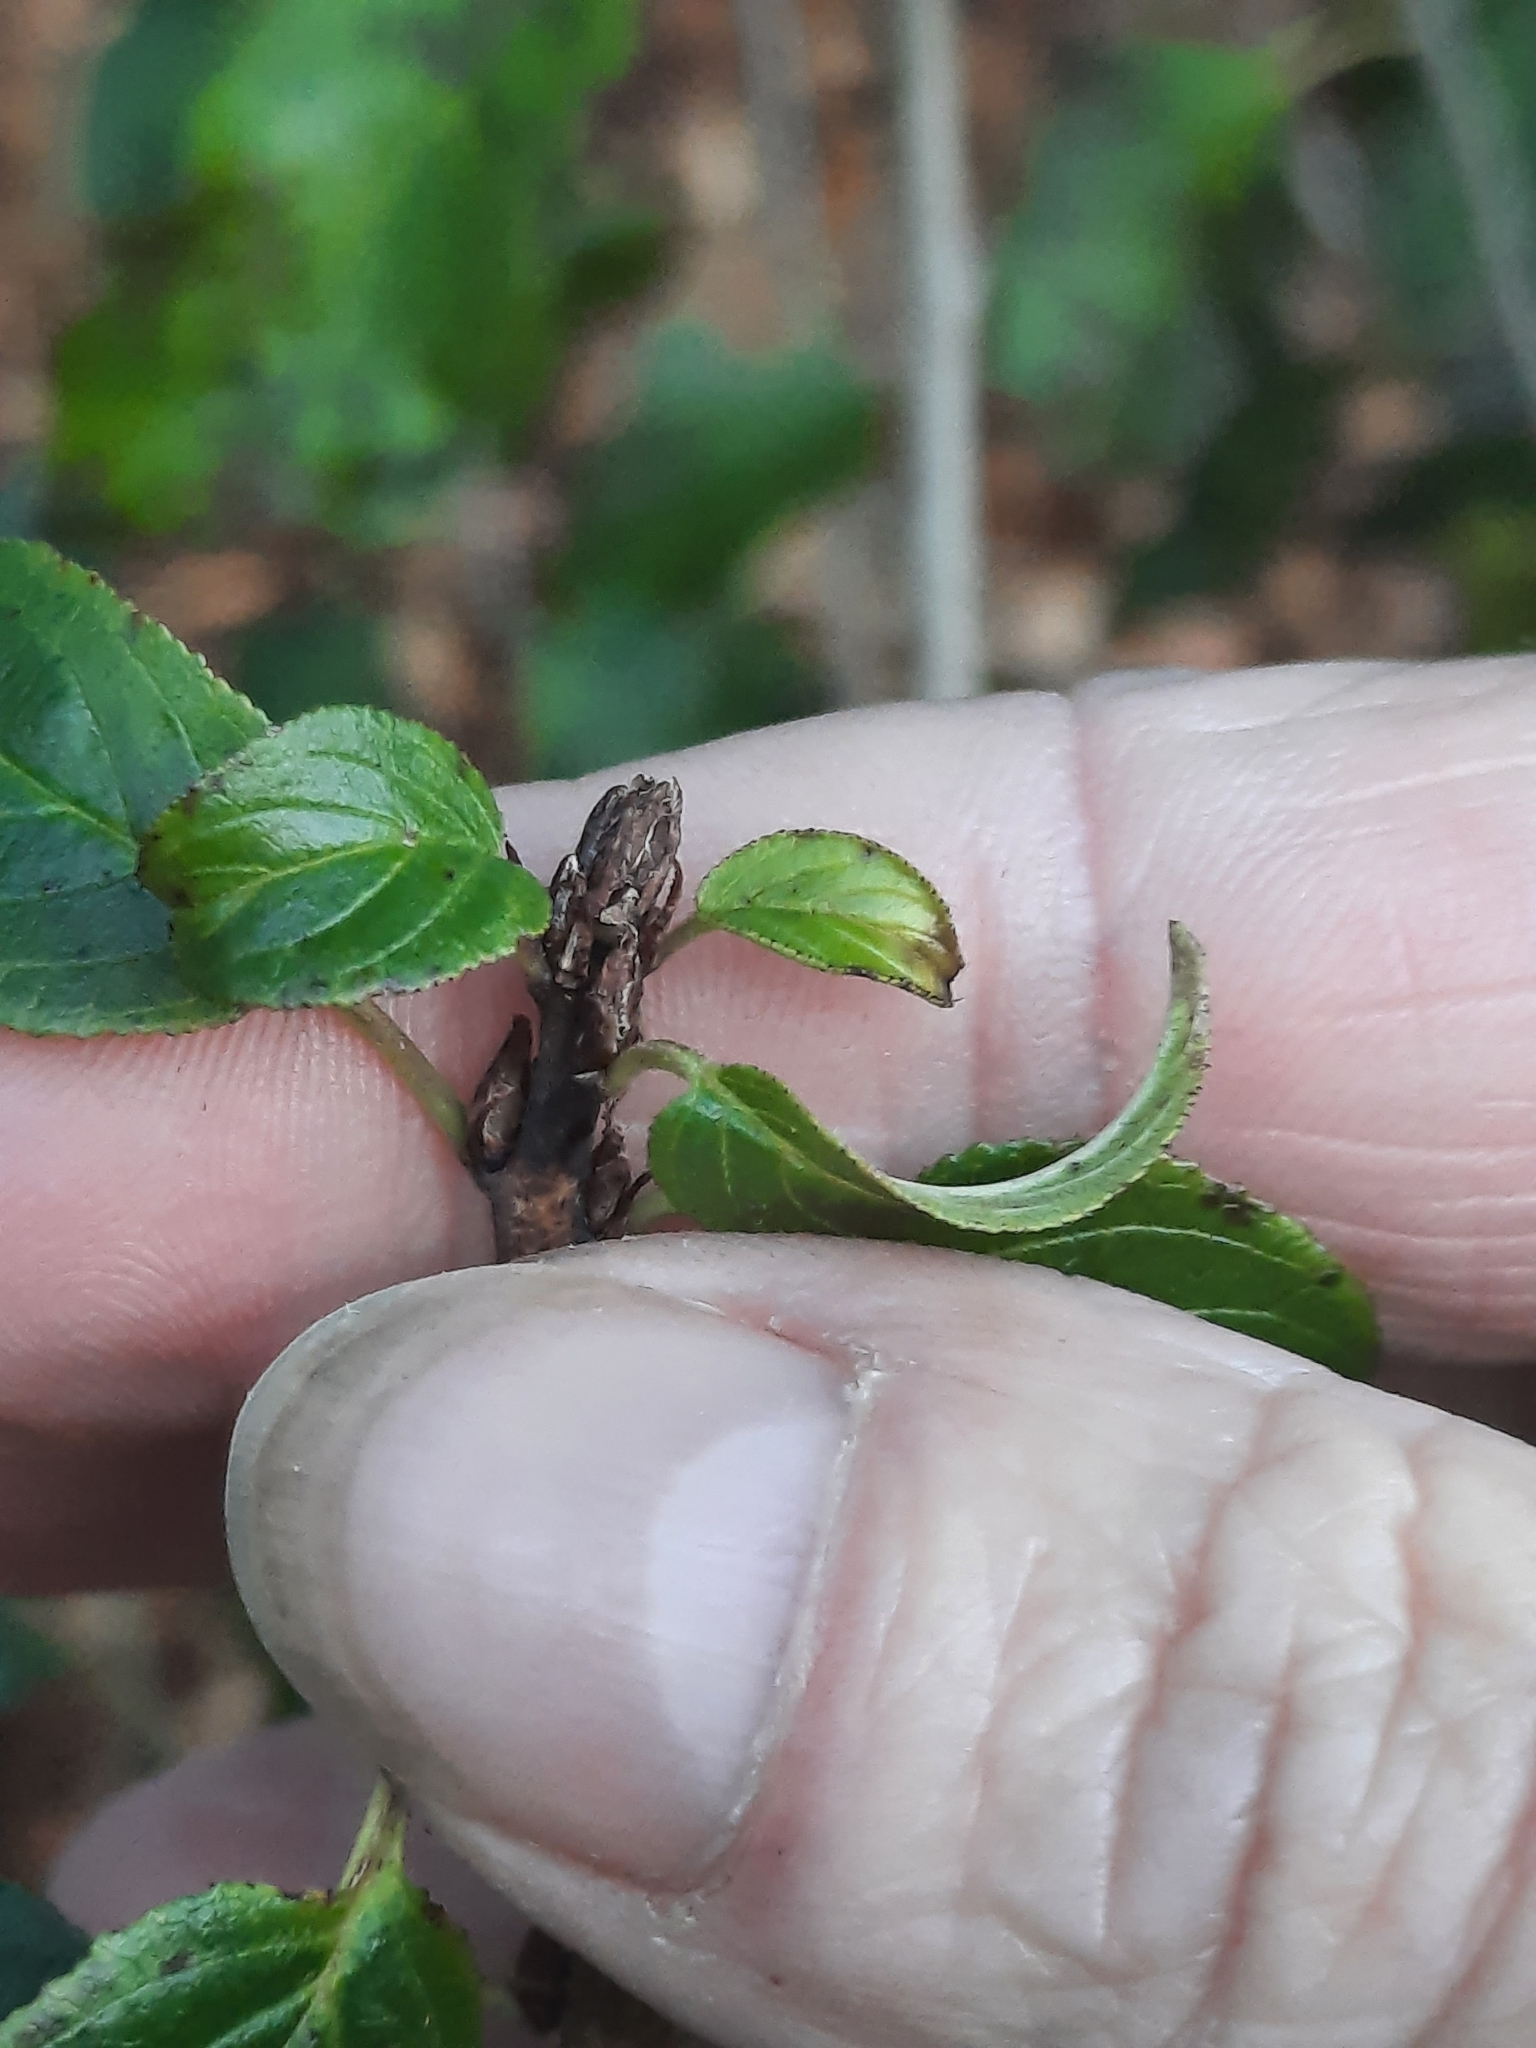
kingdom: Plantae
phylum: Tracheophyta
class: Magnoliopsida
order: Rosales
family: Rhamnaceae
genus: Rhamnus
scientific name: Rhamnus cathartica
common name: Common buckthorn
